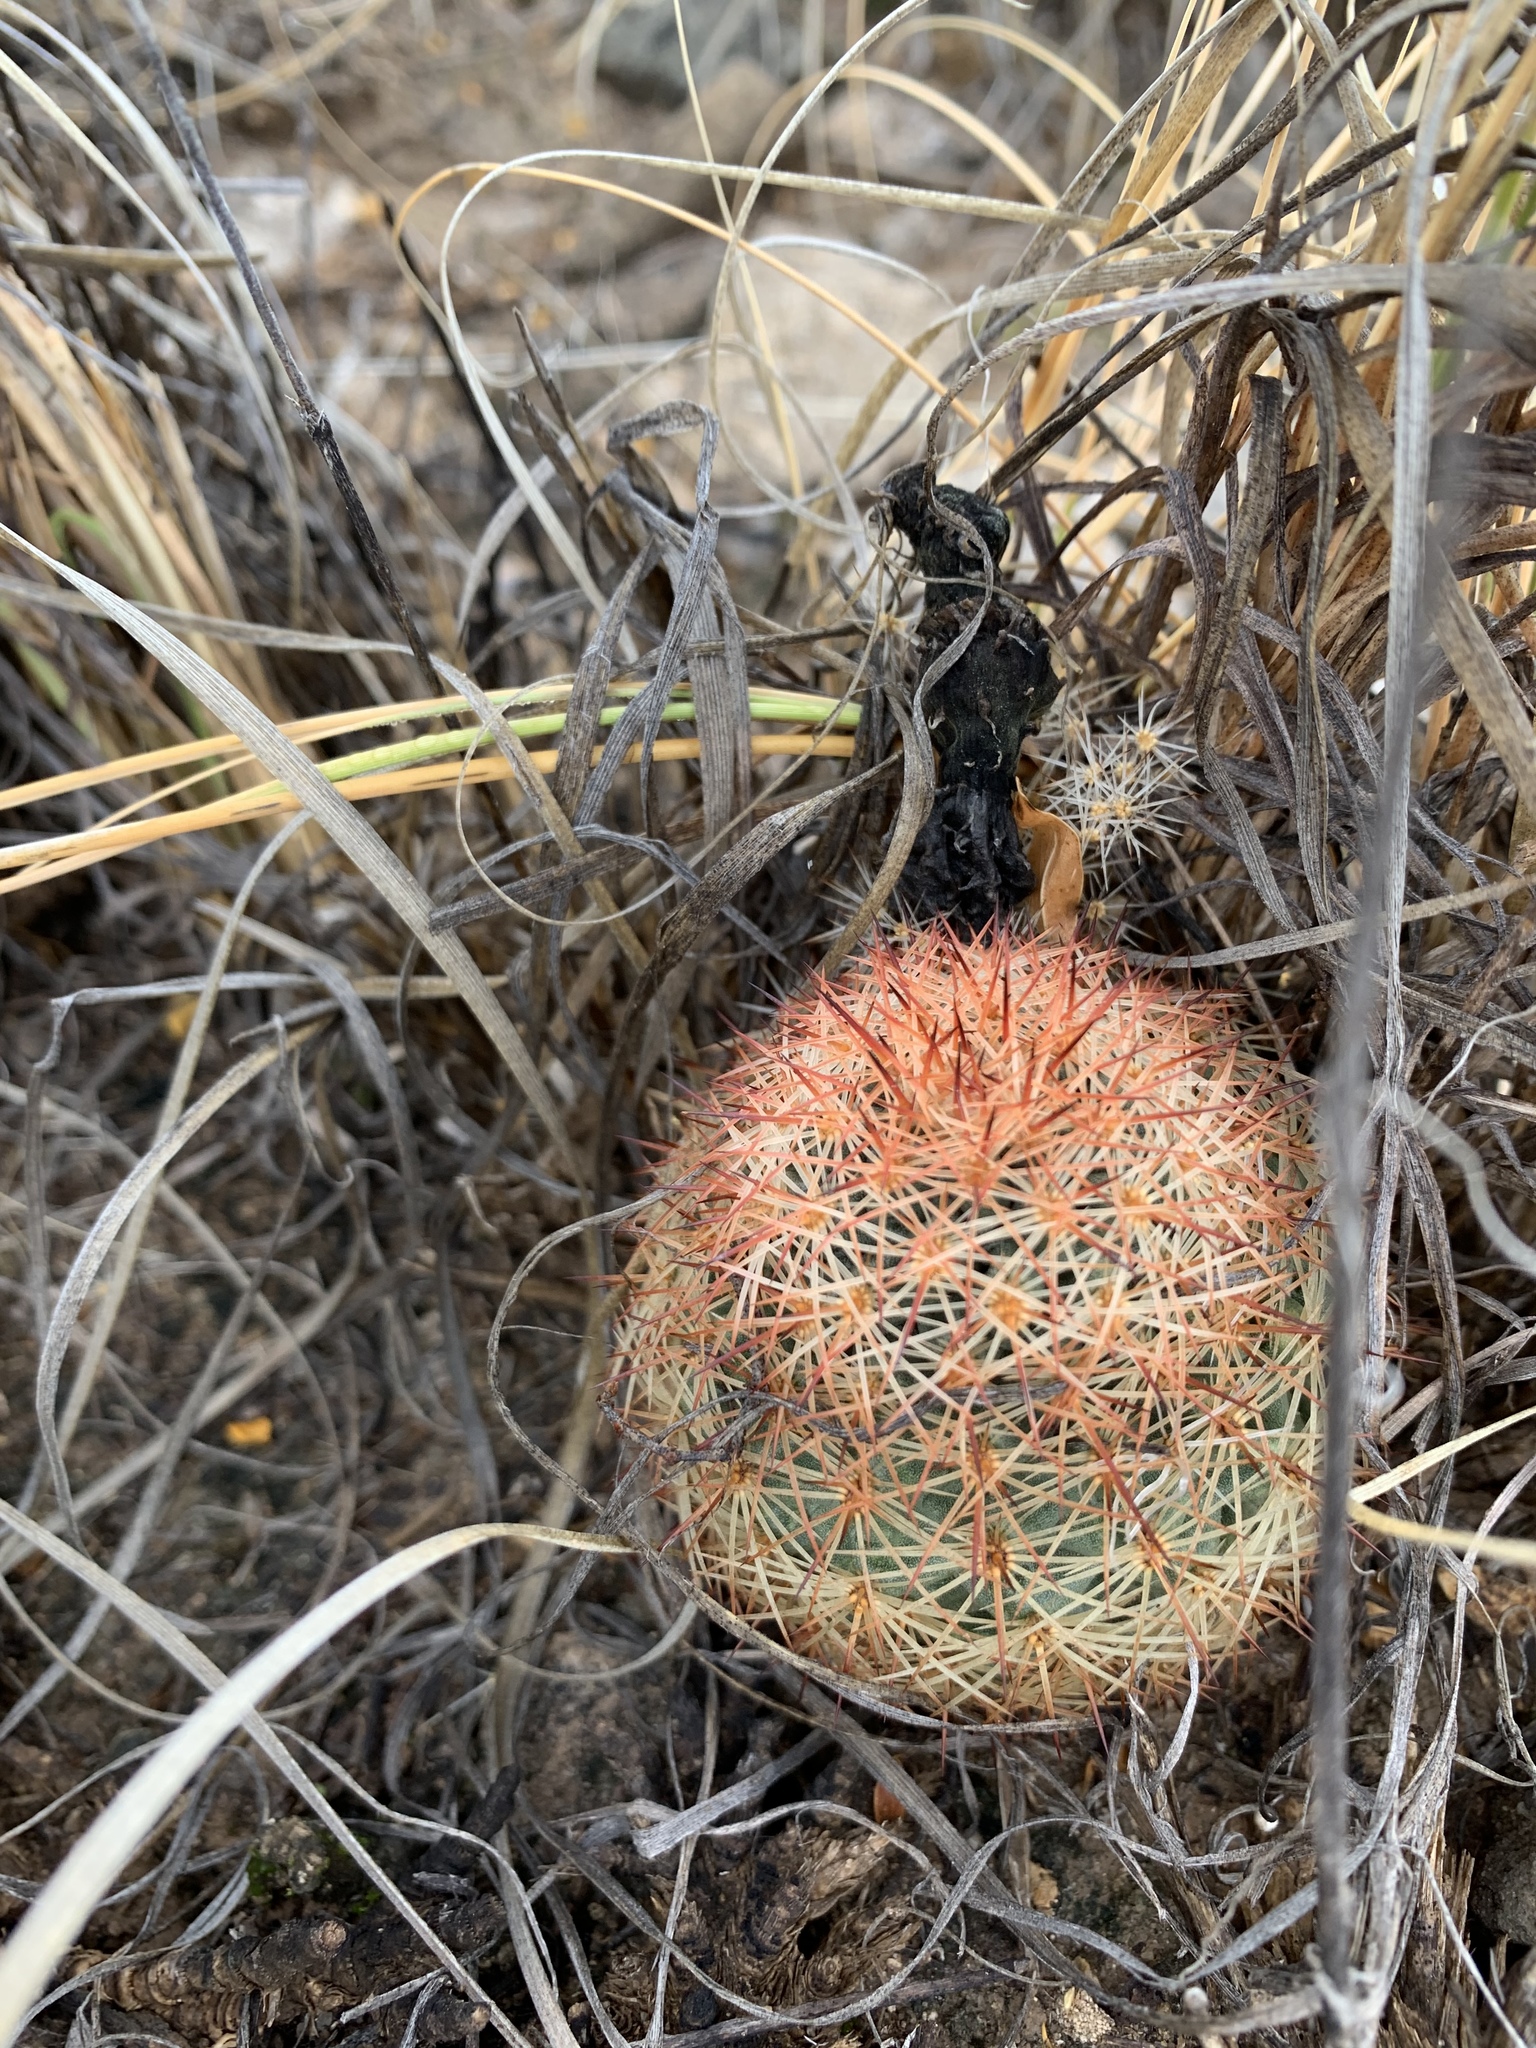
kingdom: Plantae
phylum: Tracheophyta
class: Magnoliopsida
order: Caryophyllales
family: Cactaceae
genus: Echinocereus
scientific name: Echinocereus dasyacanthus
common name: Spiny hedgehog cactus
